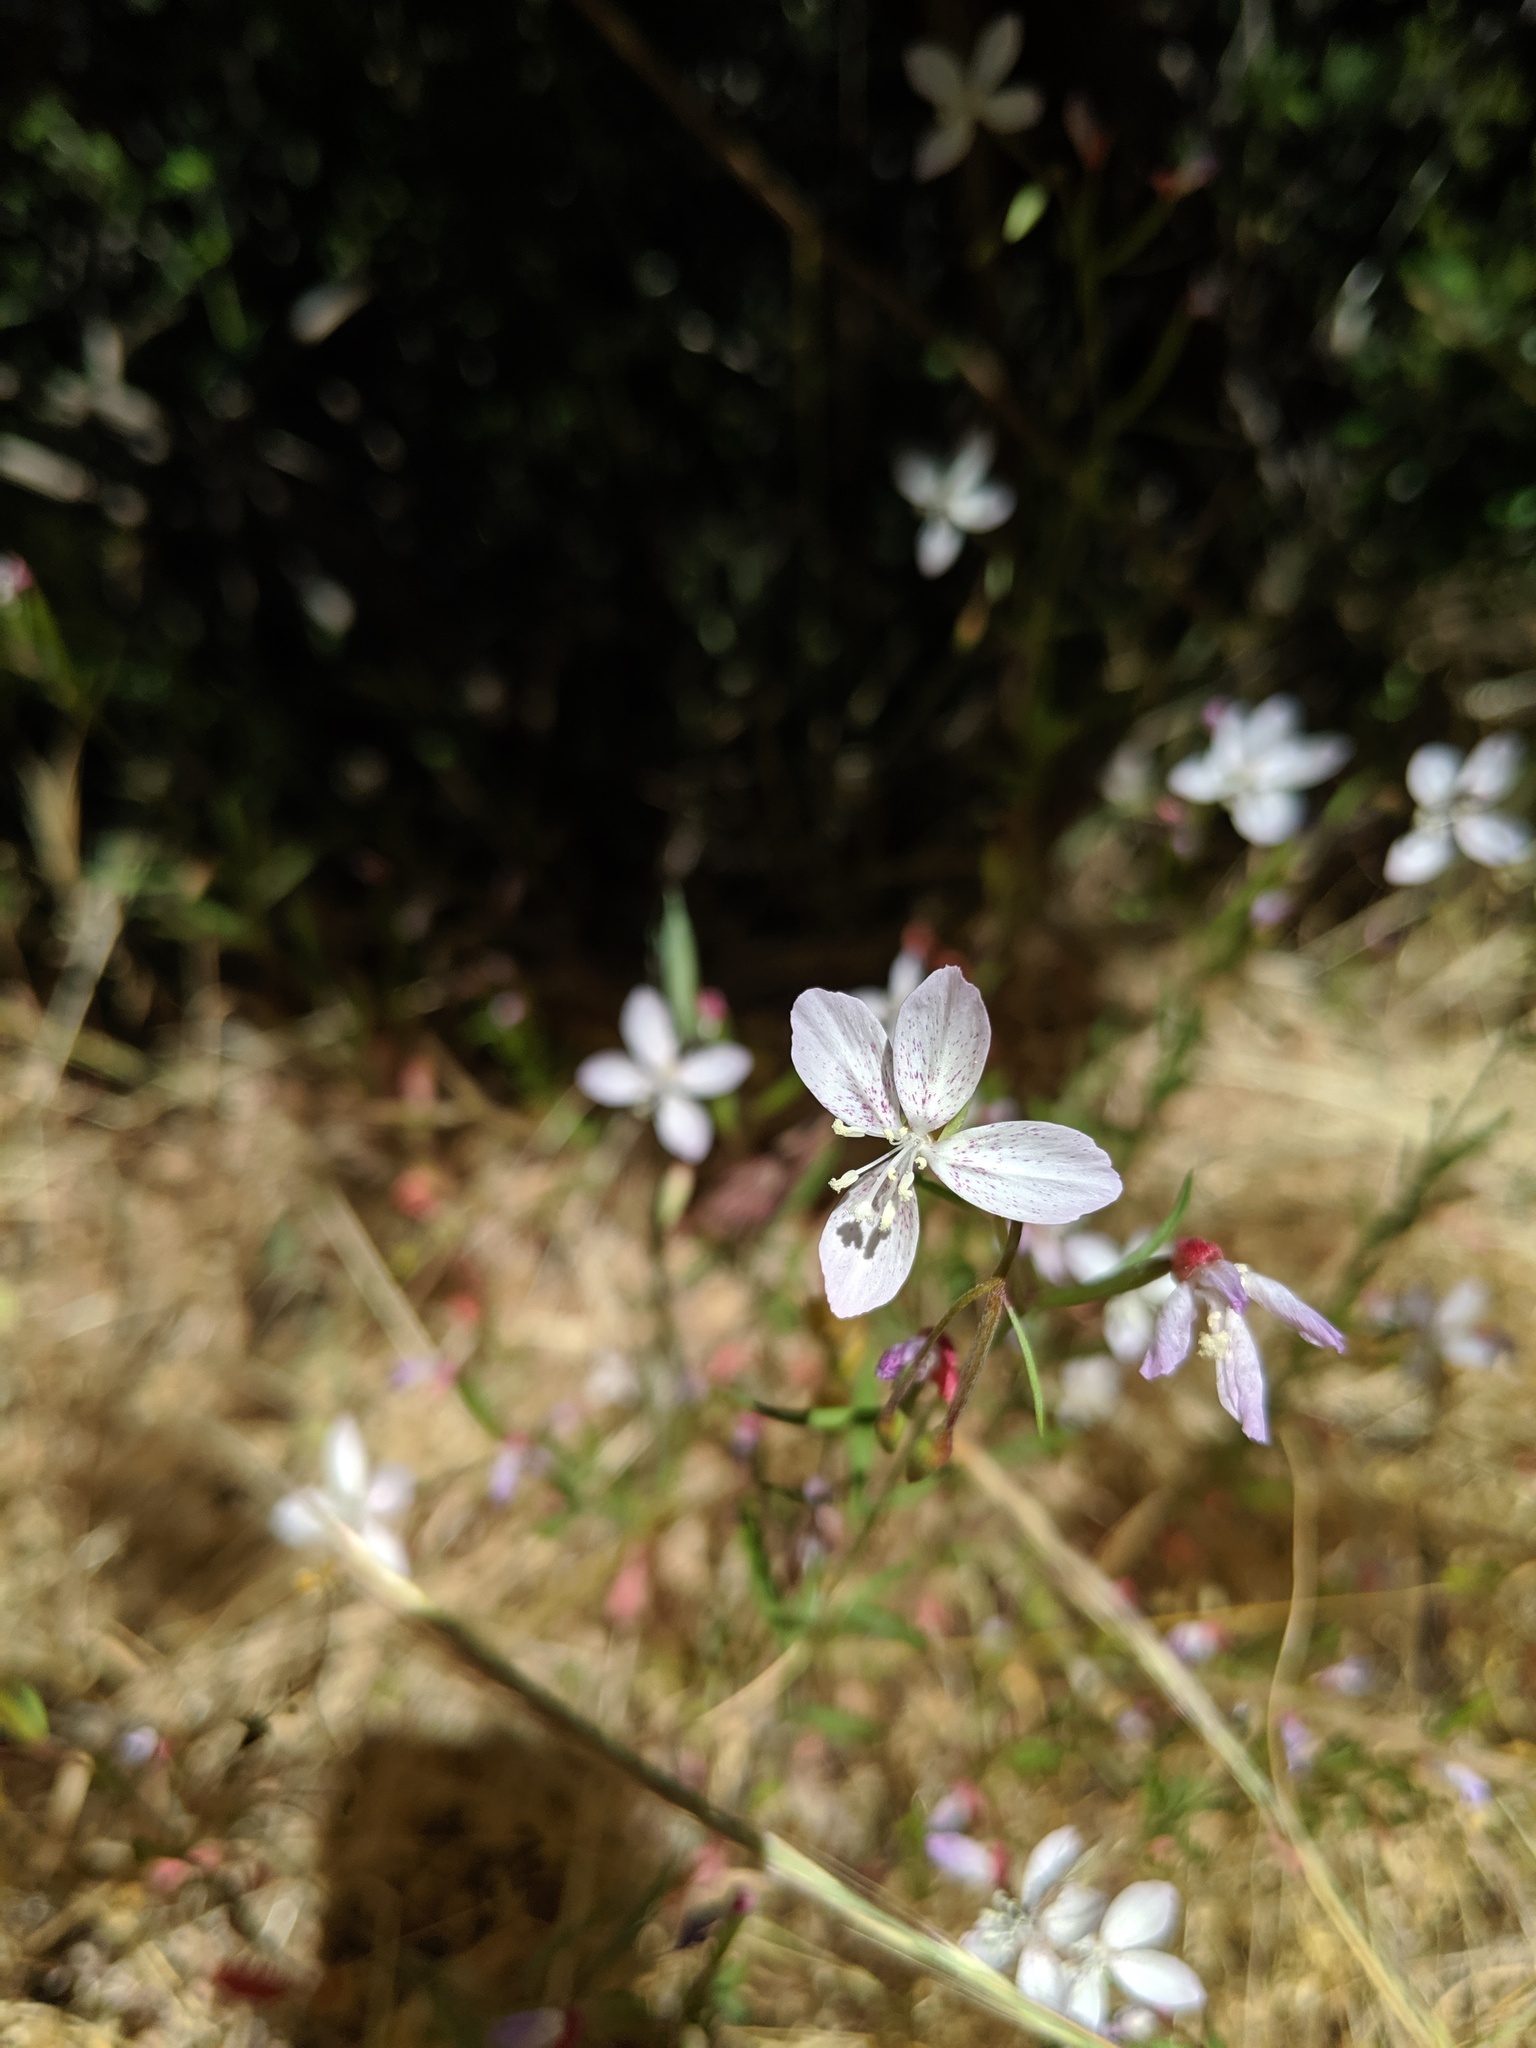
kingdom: Plantae
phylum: Tracheophyta
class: Magnoliopsida
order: Myrtales
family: Onagraceae
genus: Clarkia
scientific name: Clarkia similis
